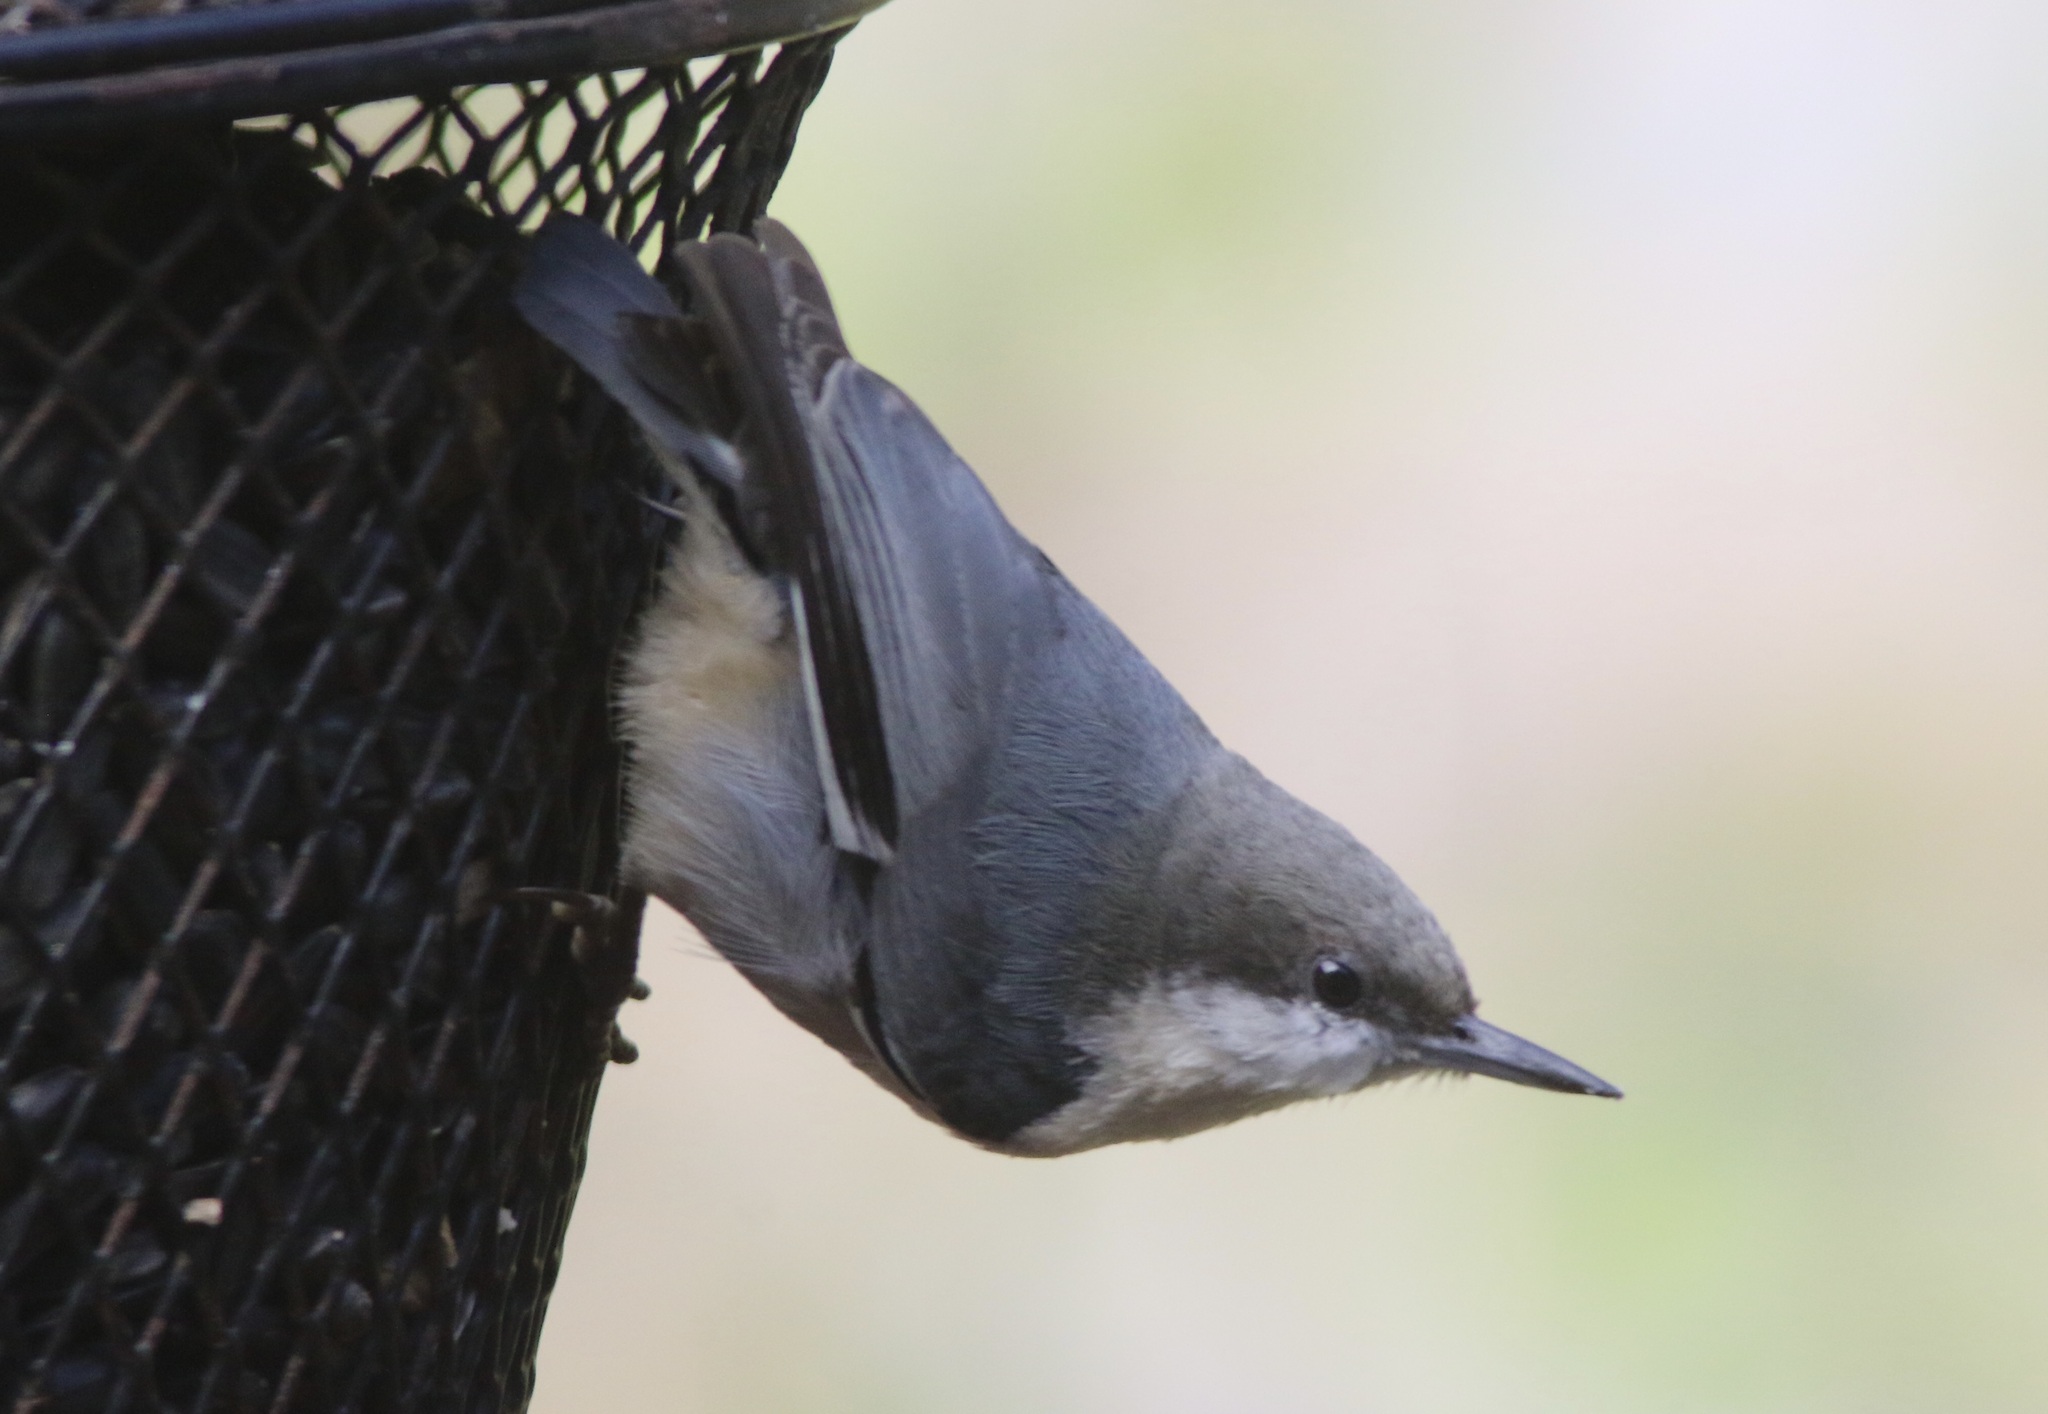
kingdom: Animalia
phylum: Chordata
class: Aves
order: Passeriformes
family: Sittidae
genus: Sitta
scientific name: Sitta pygmaea
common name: Pygmy nuthatch
